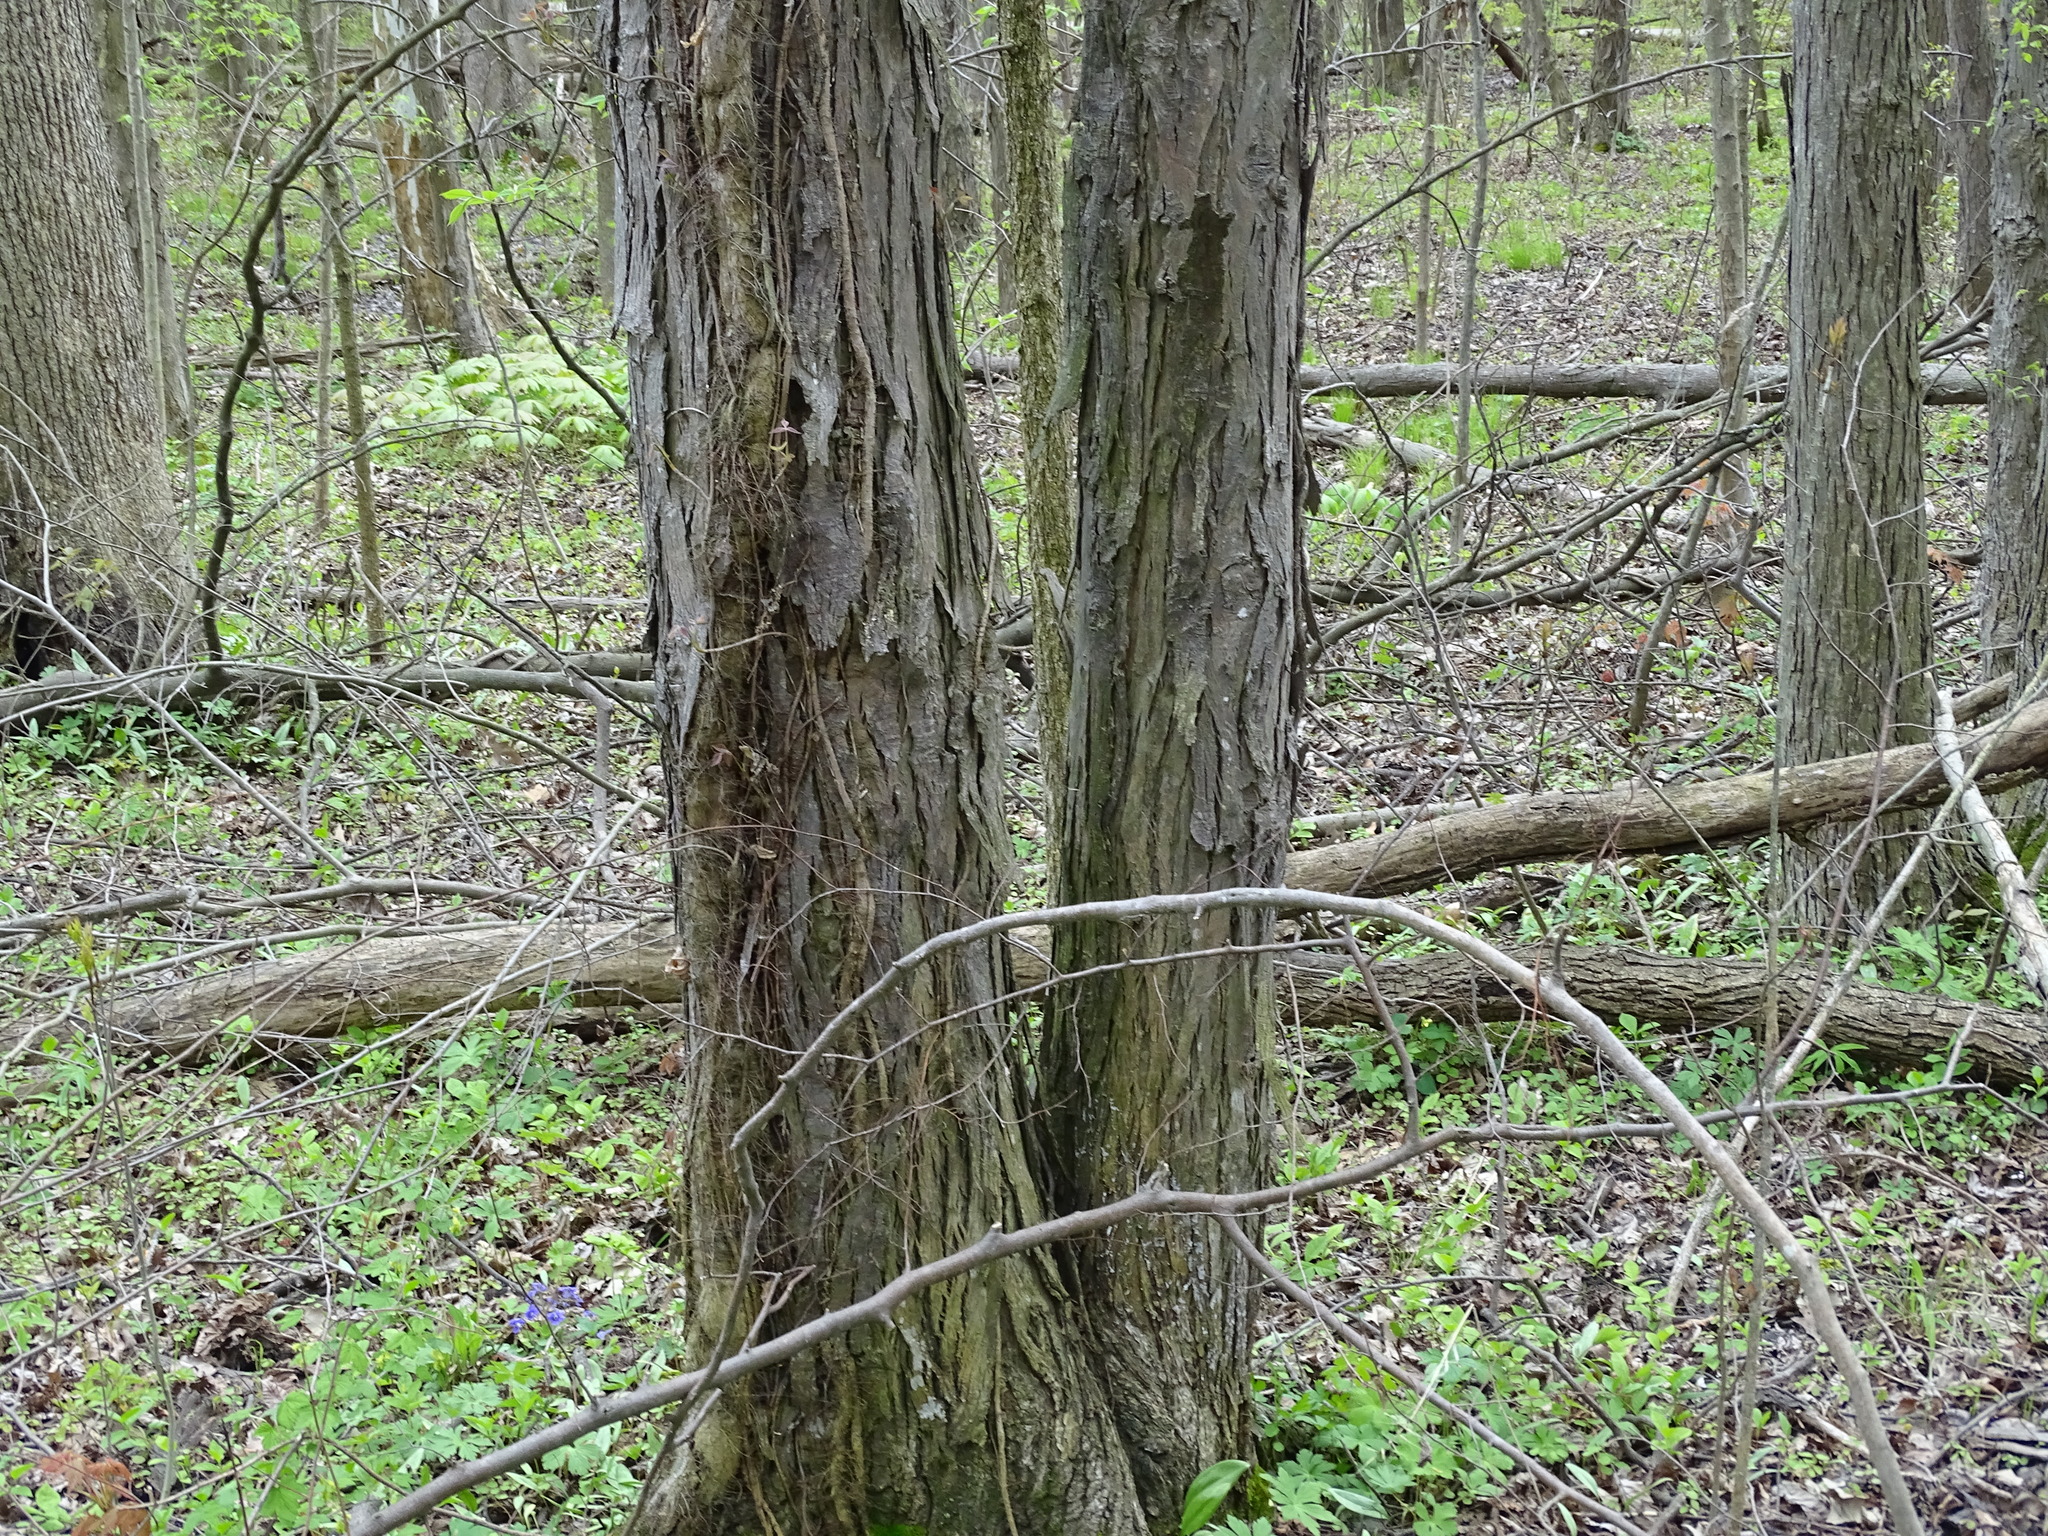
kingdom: Plantae
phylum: Tracheophyta
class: Magnoliopsida
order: Fagales
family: Juglandaceae
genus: Carya
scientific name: Carya ovata
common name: Shagbark hickory
